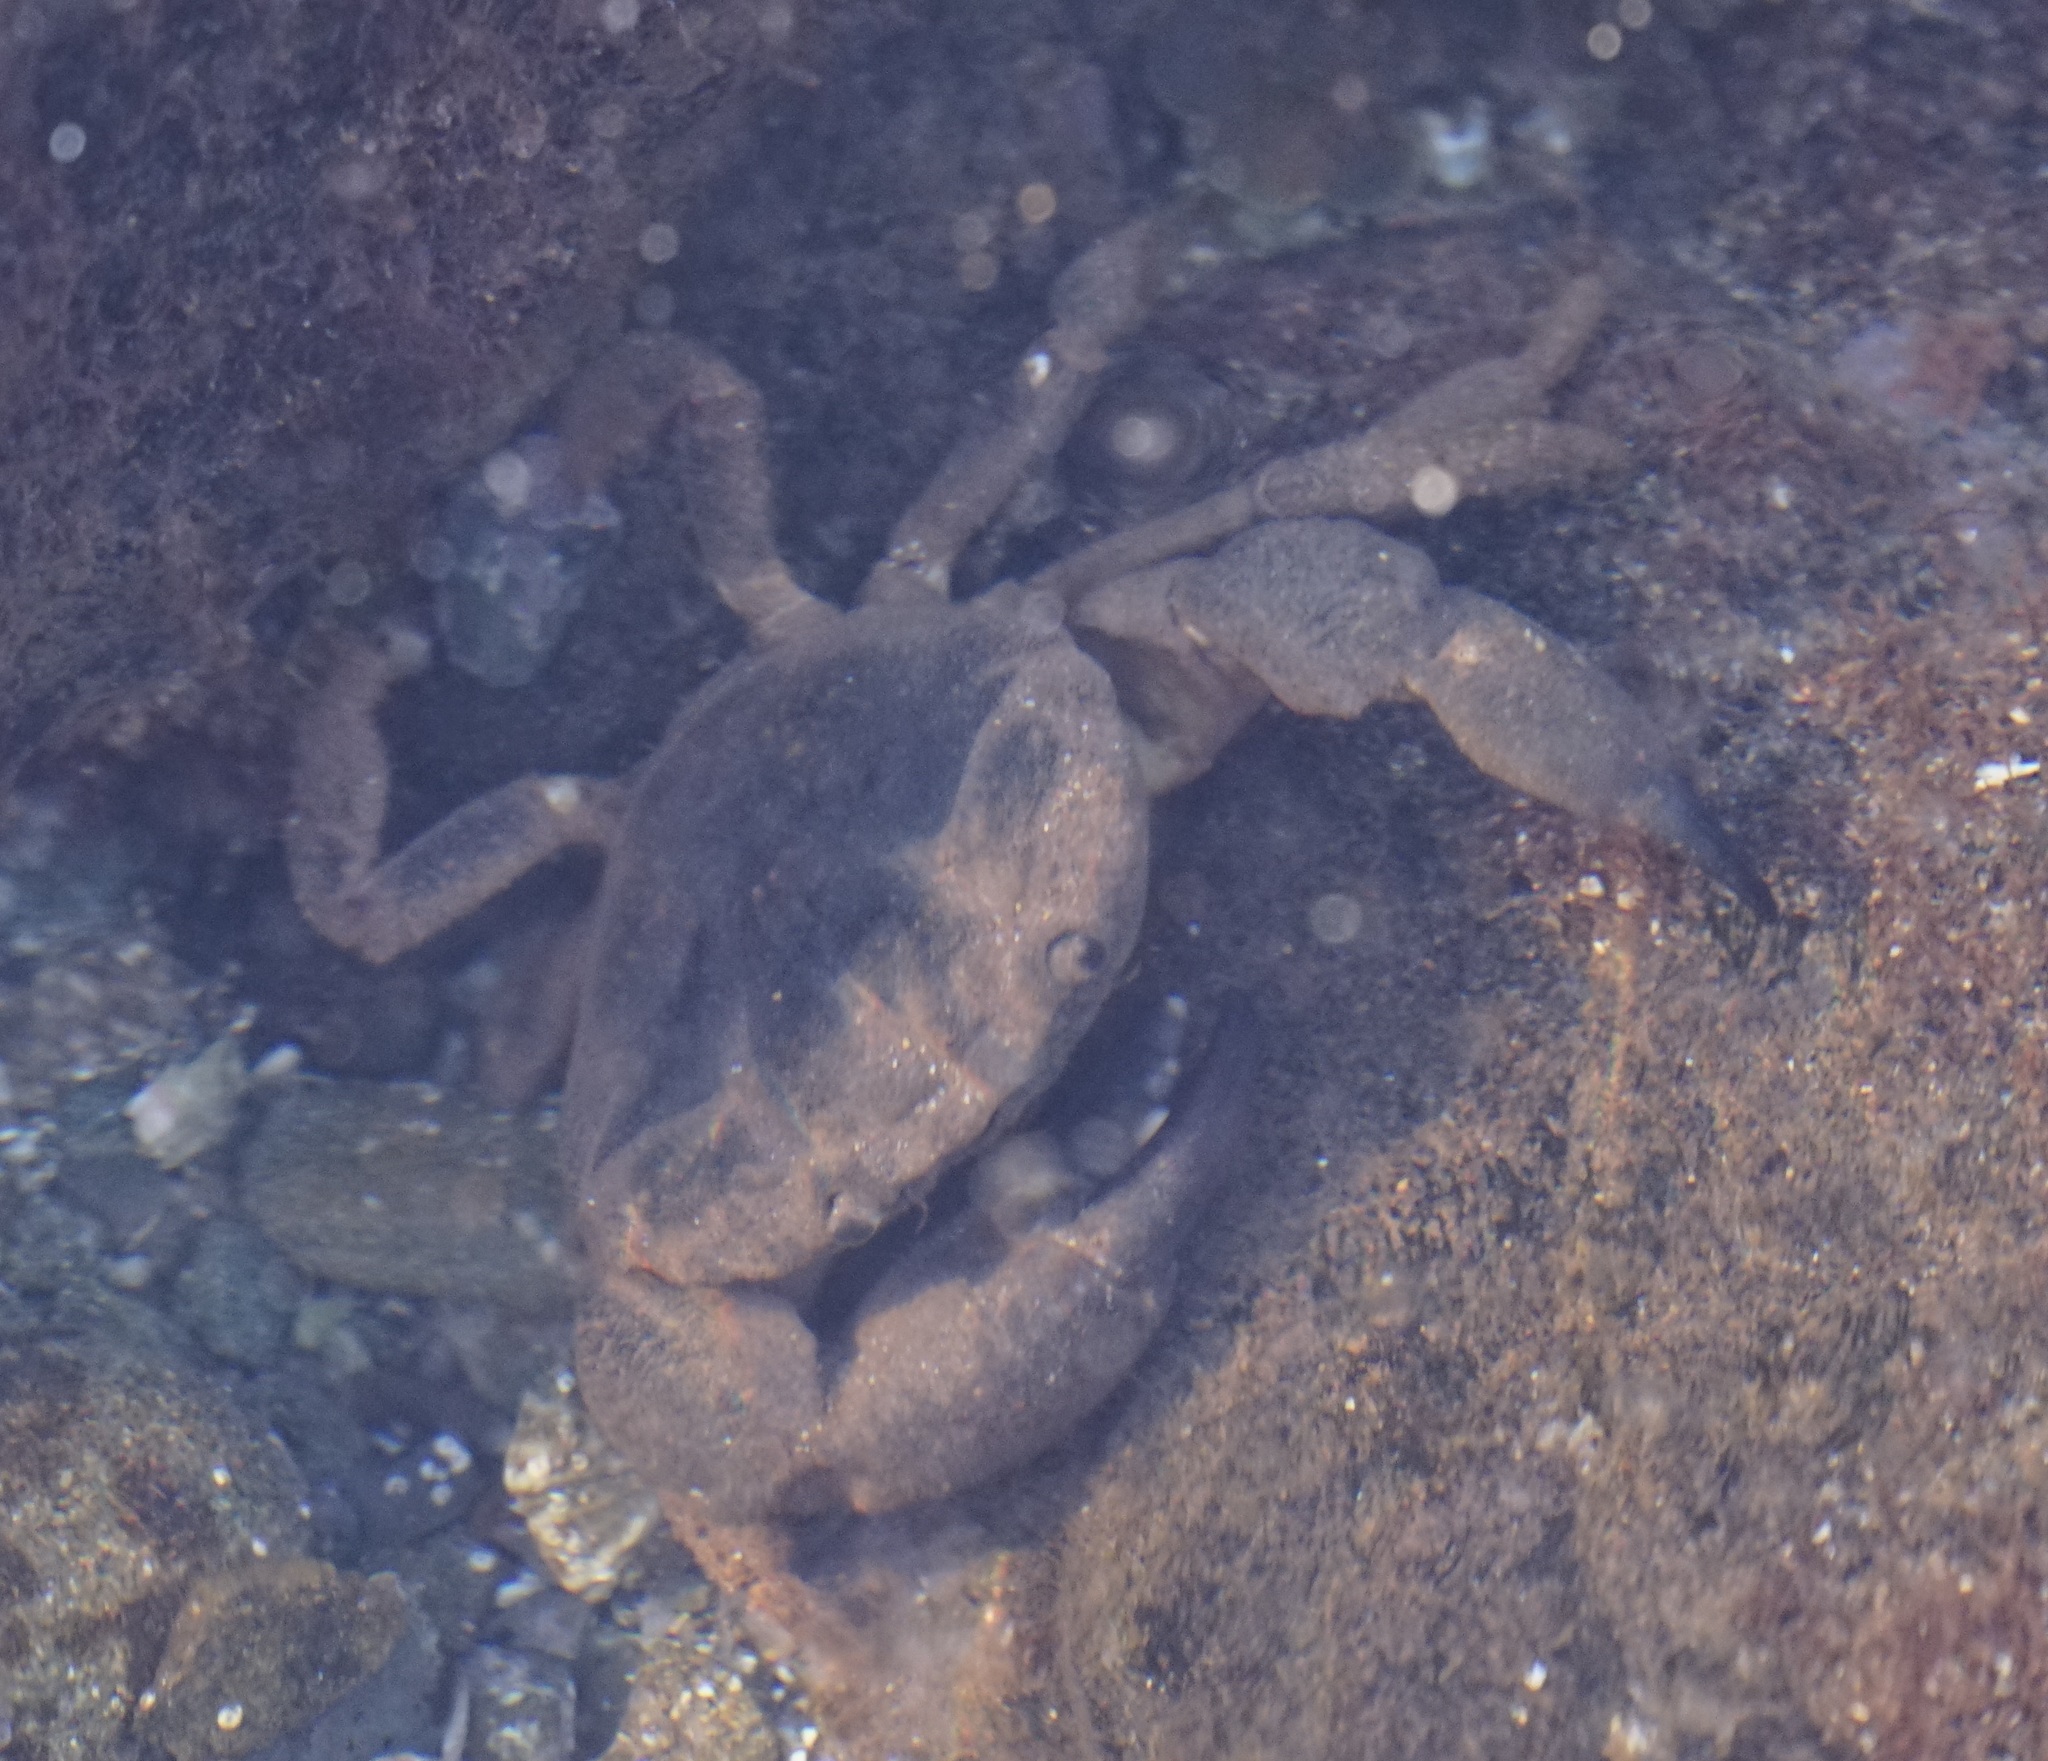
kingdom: Animalia
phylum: Arthropoda
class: Malacostraca
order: Decapoda
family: Oziidae
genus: Ozius
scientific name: Ozius truncatus
